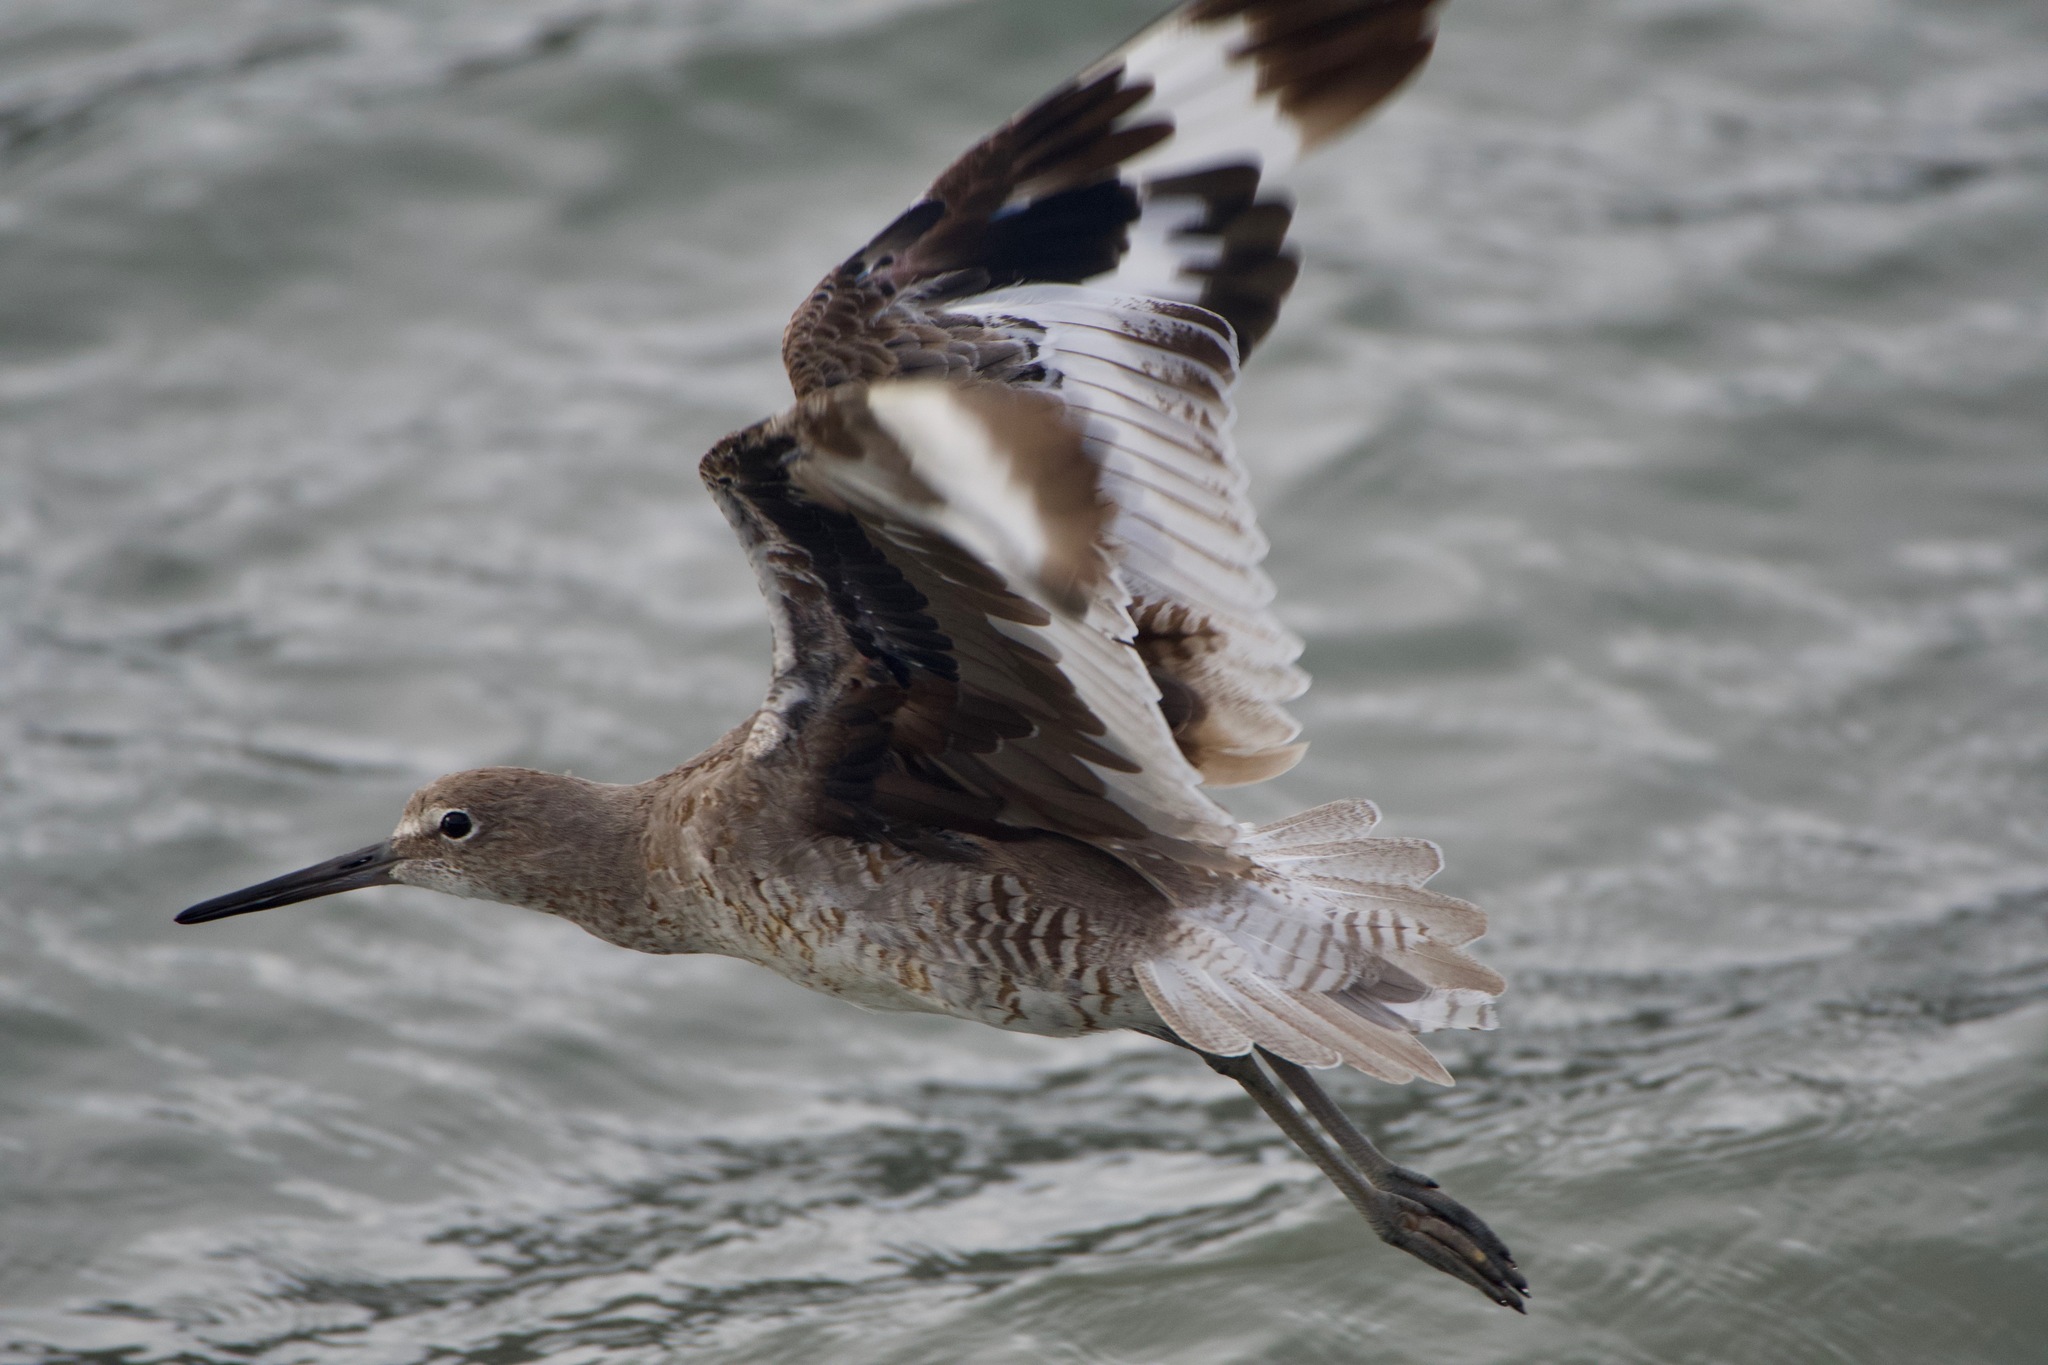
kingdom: Animalia
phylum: Chordata
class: Aves
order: Charadriiformes
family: Scolopacidae
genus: Tringa
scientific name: Tringa semipalmata
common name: Willet
